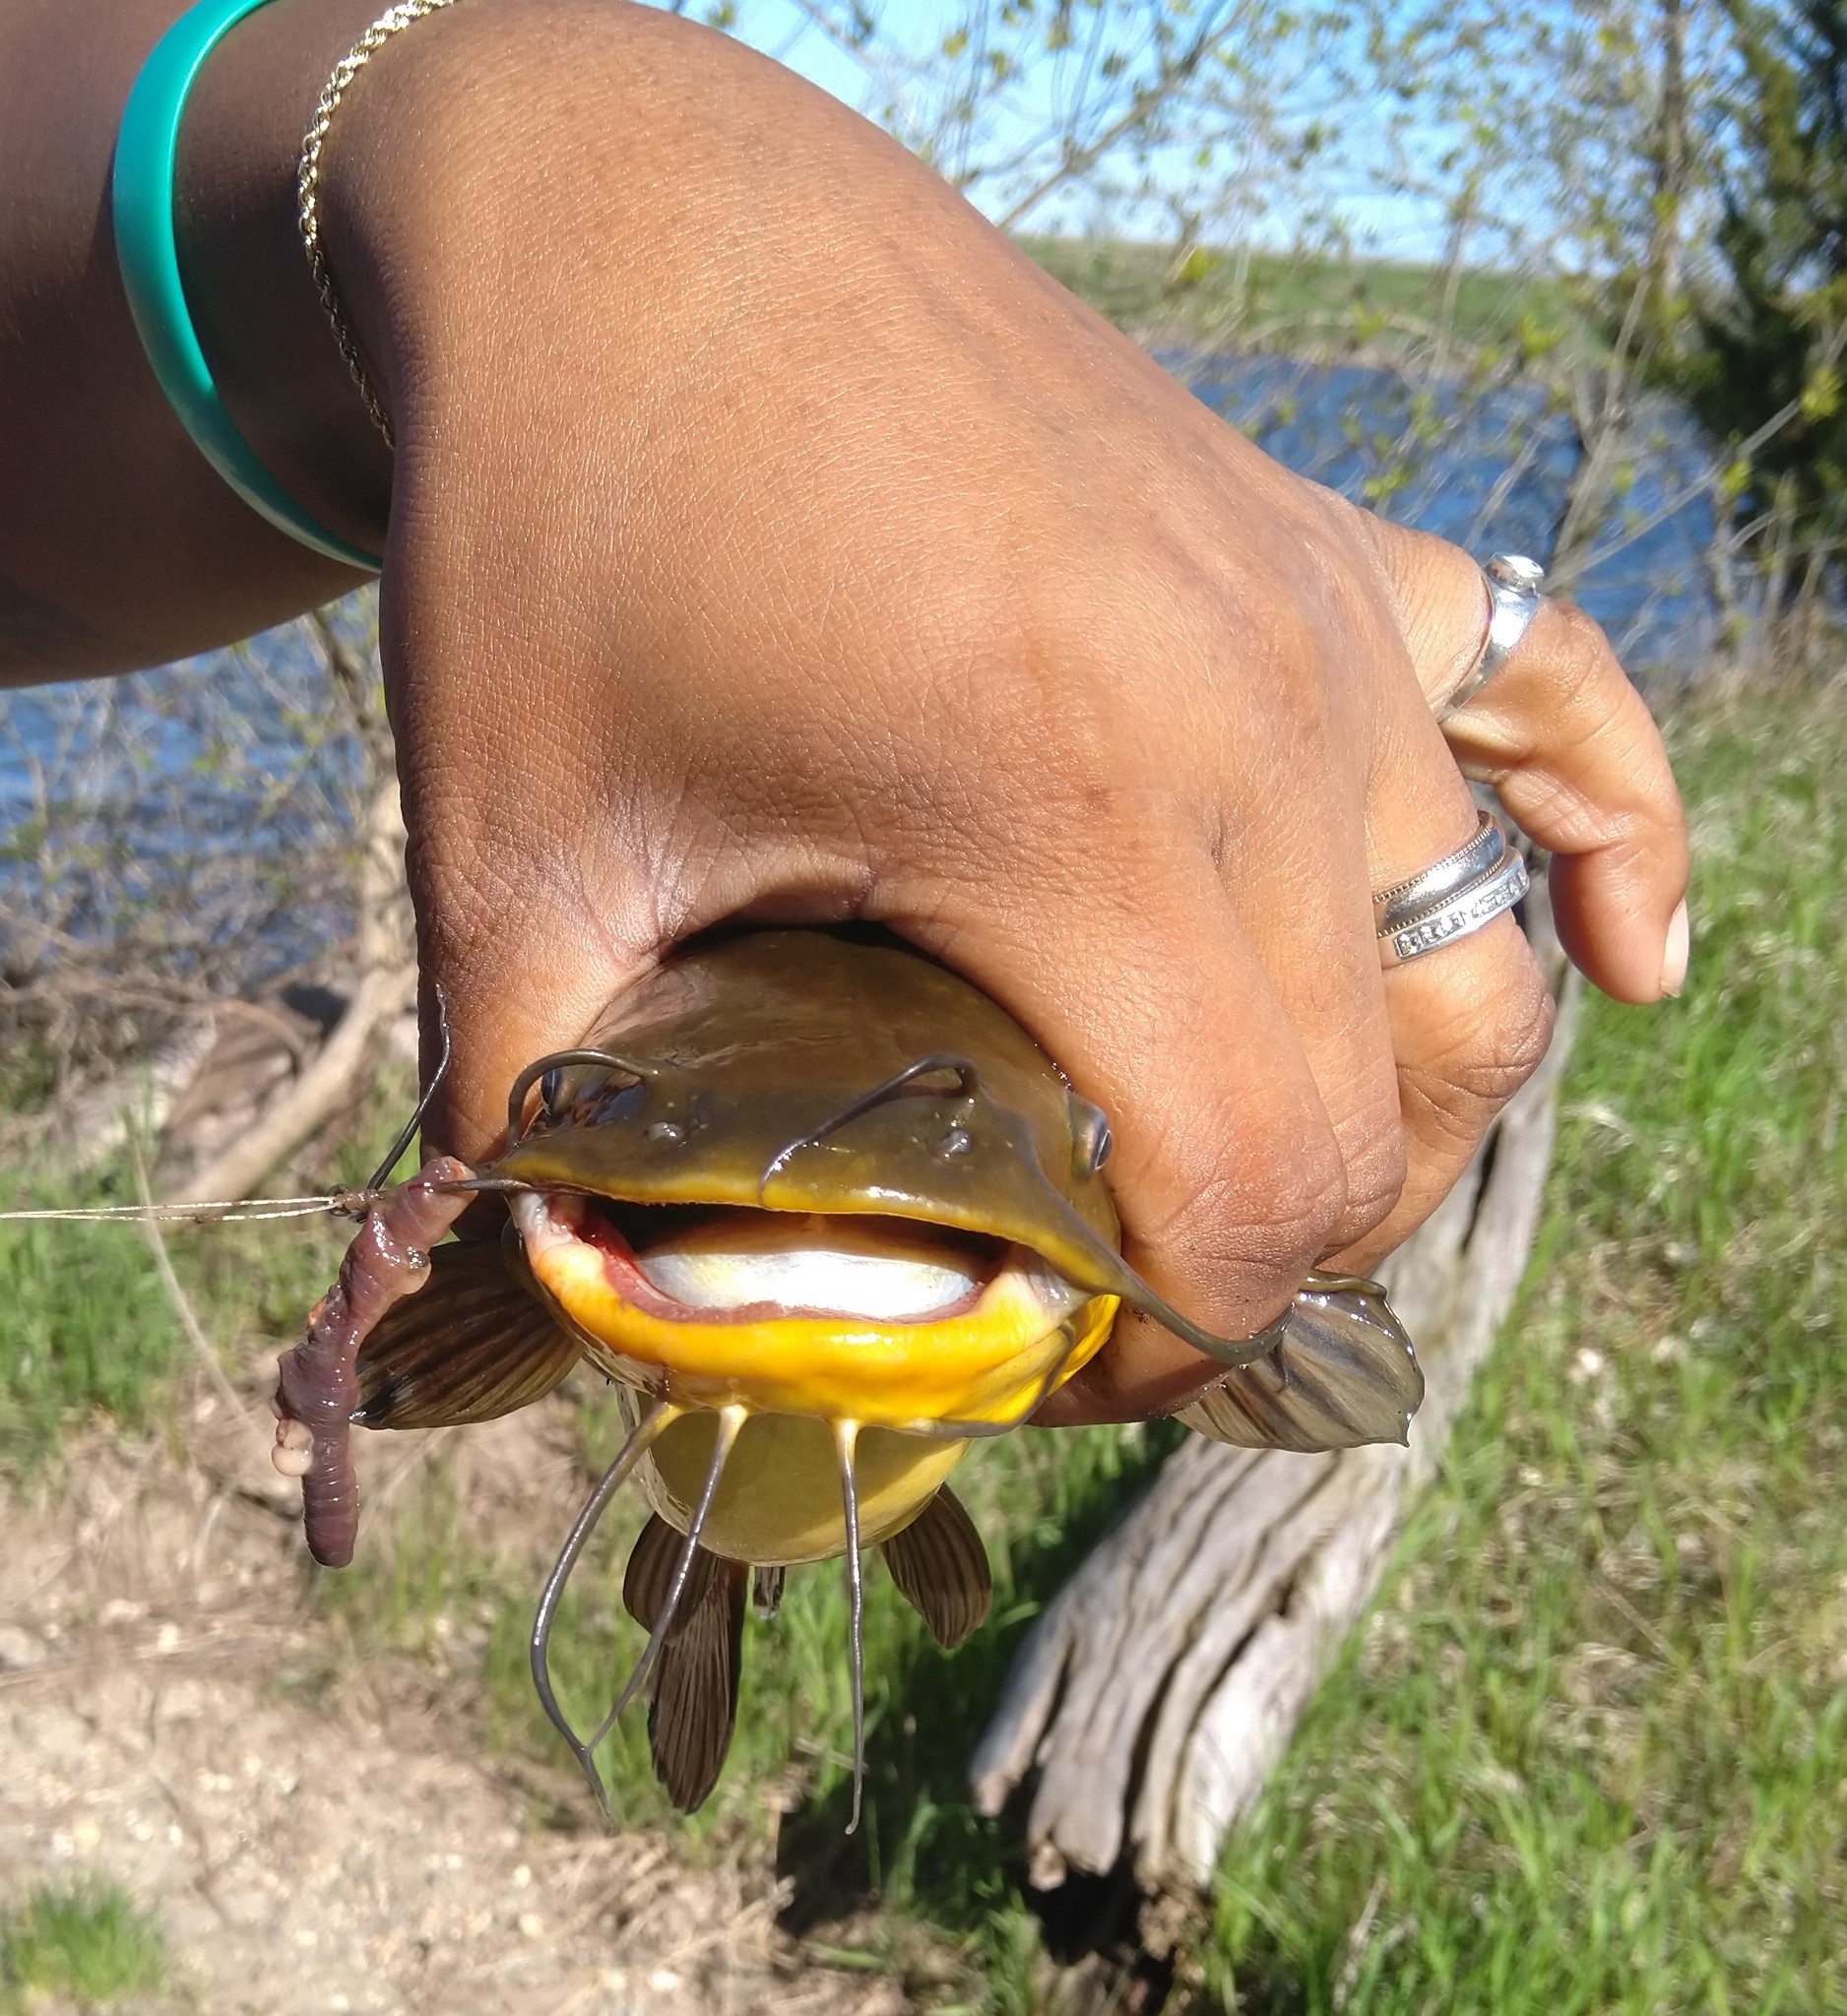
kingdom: Animalia
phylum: Chordata
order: Siluriformes
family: Ictaluridae
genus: Ameiurus
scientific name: Ameiurus melas
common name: Black bullhead
